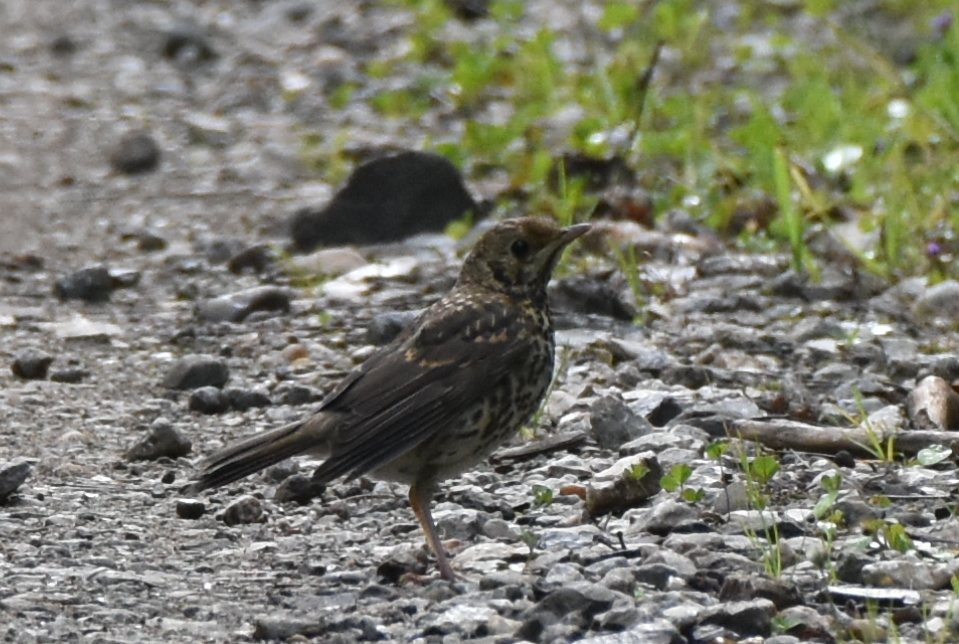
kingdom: Animalia
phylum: Chordata
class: Aves
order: Passeriformes
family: Turdidae
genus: Turdus
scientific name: Turdus philomelos
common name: Song thrush
